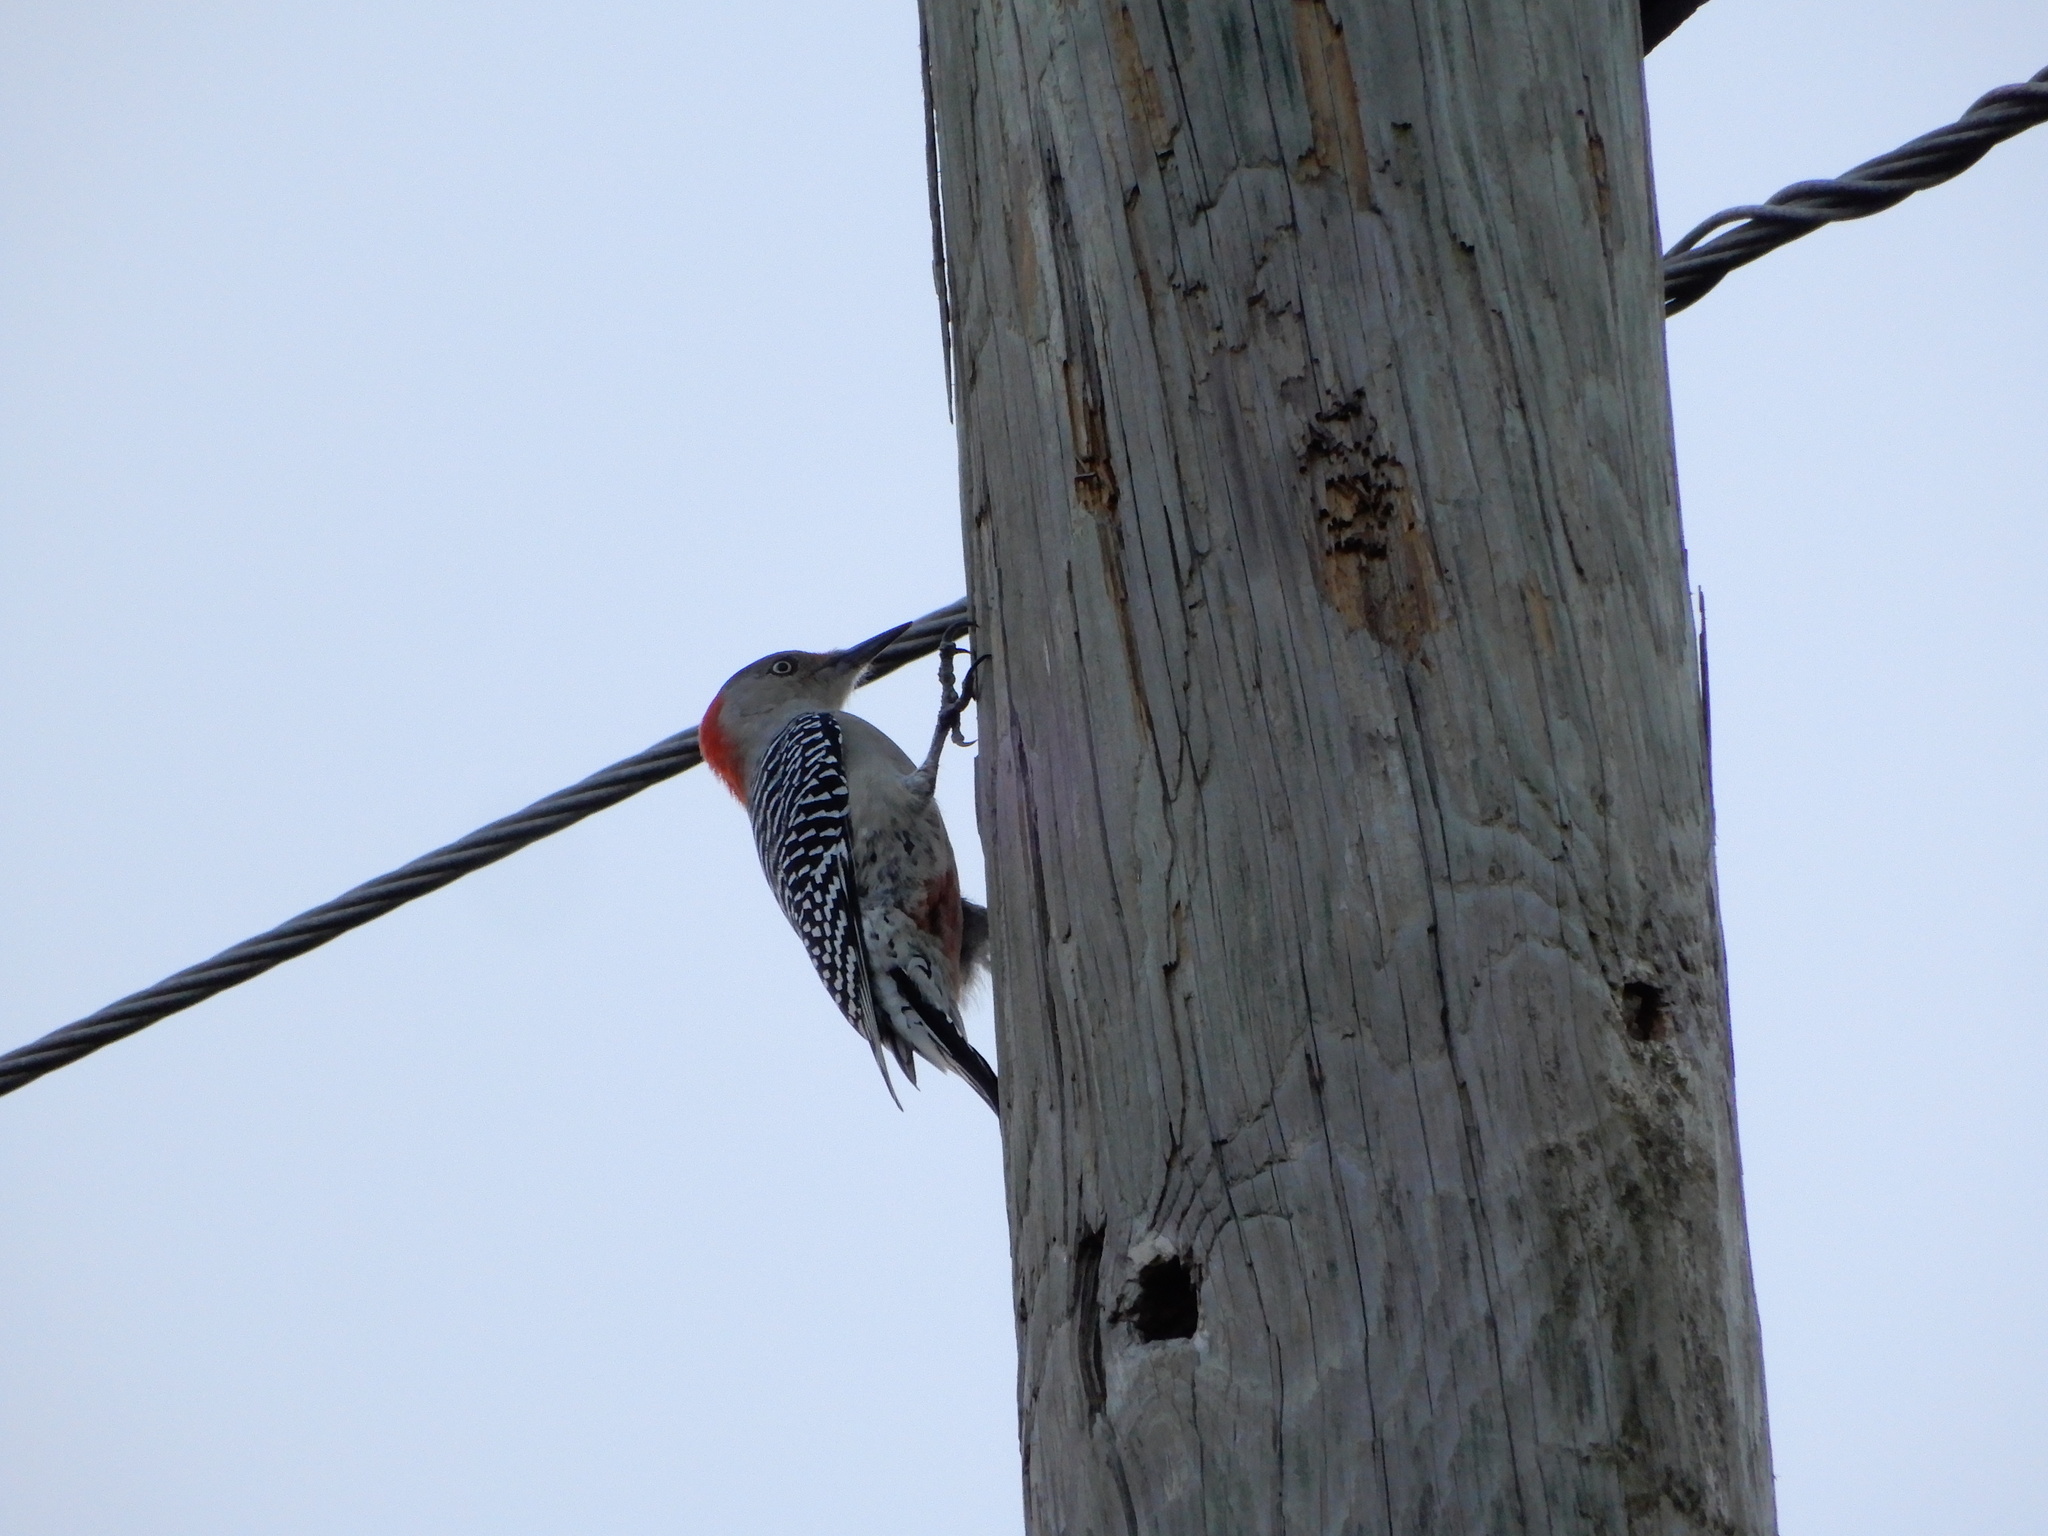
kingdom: Animalia
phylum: Chordata
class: Aves
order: Piciformes
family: Picidae
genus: Melanerpes
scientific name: Melanerpes carolinus
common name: Red-bellied woodpecker
